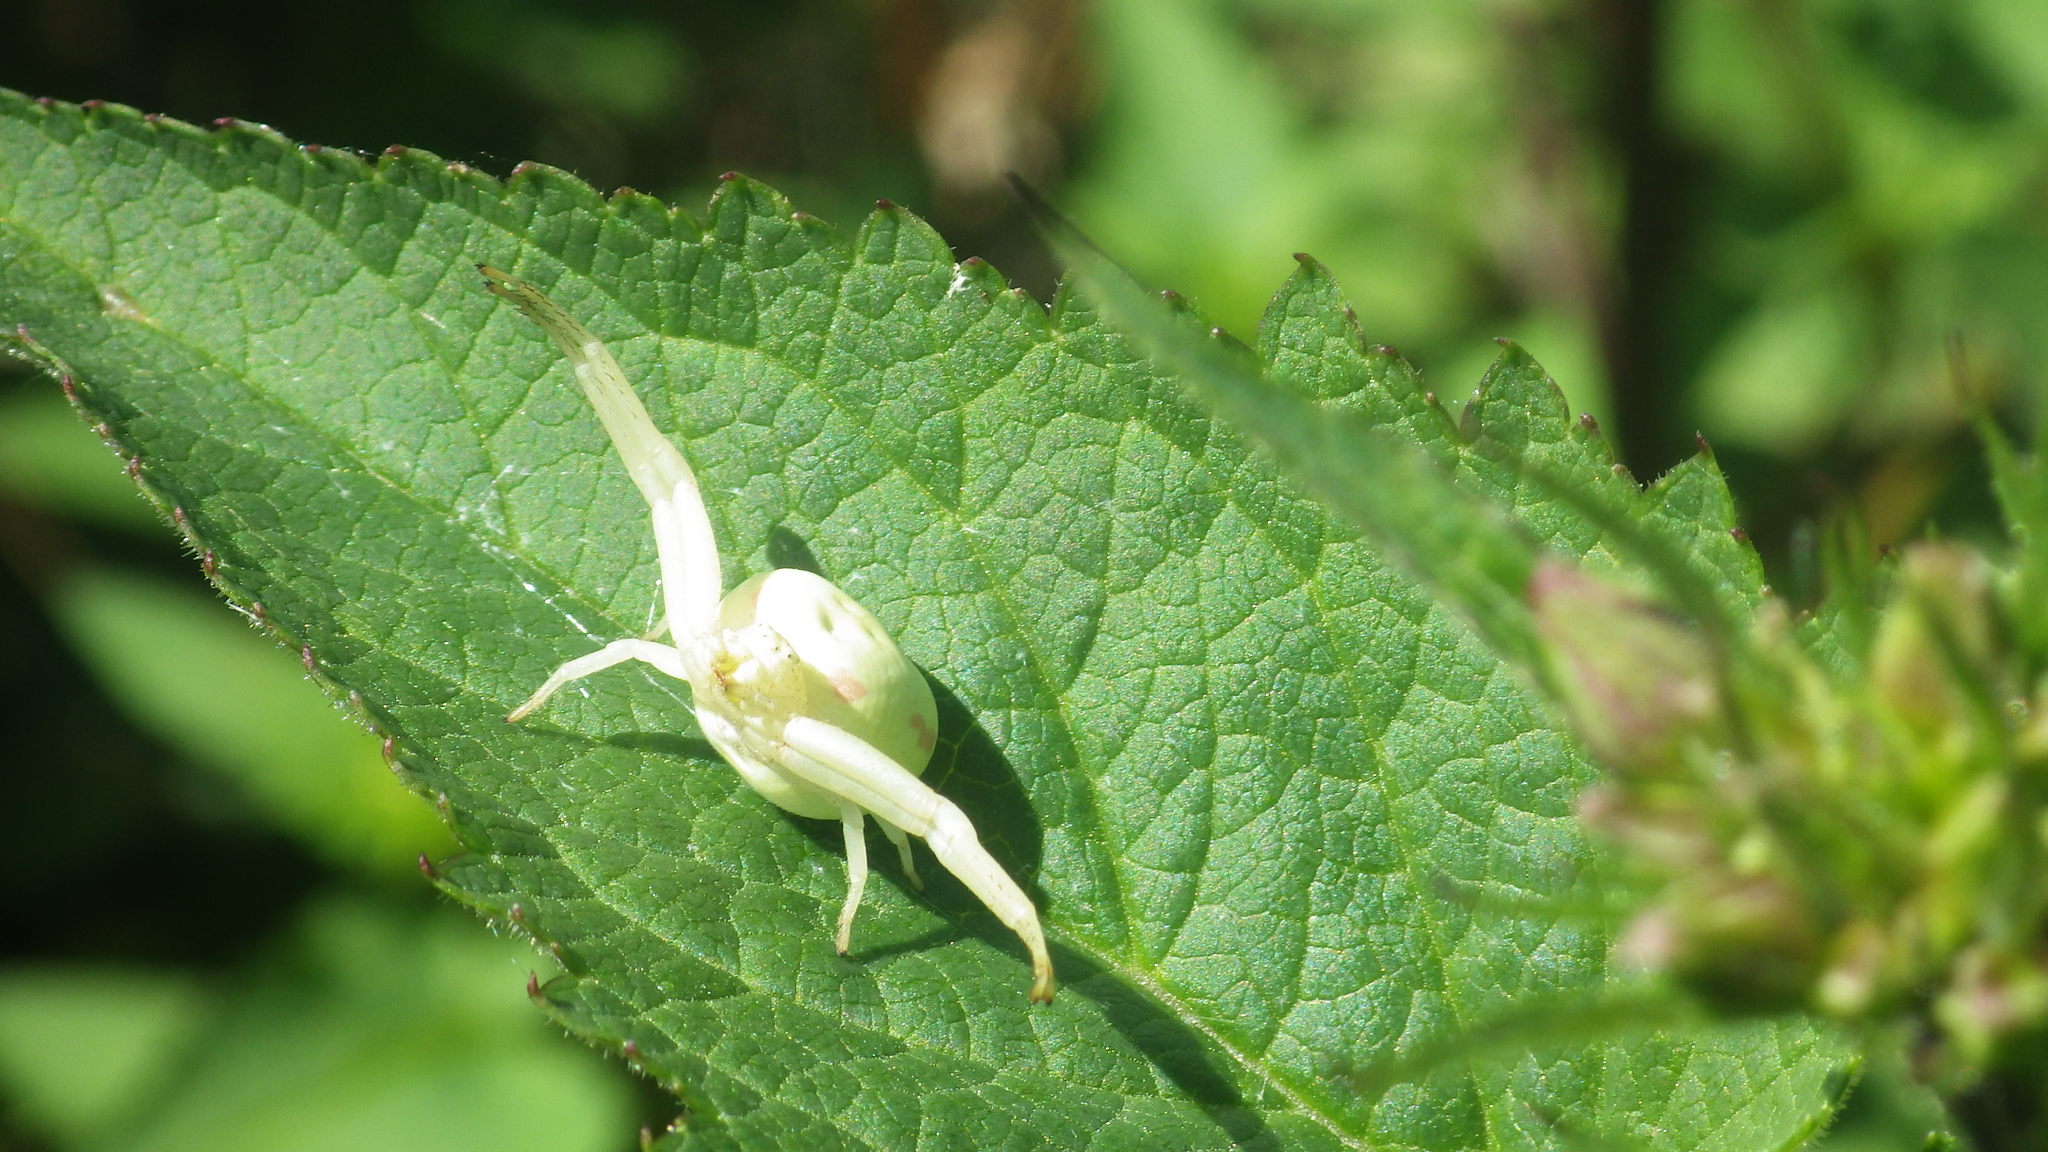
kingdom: Animalia
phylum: Arthropoda
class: Arachnida
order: Araneae
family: Thomisidae
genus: Misumena
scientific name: Misumena vatia
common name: Goldenrod crab spider
